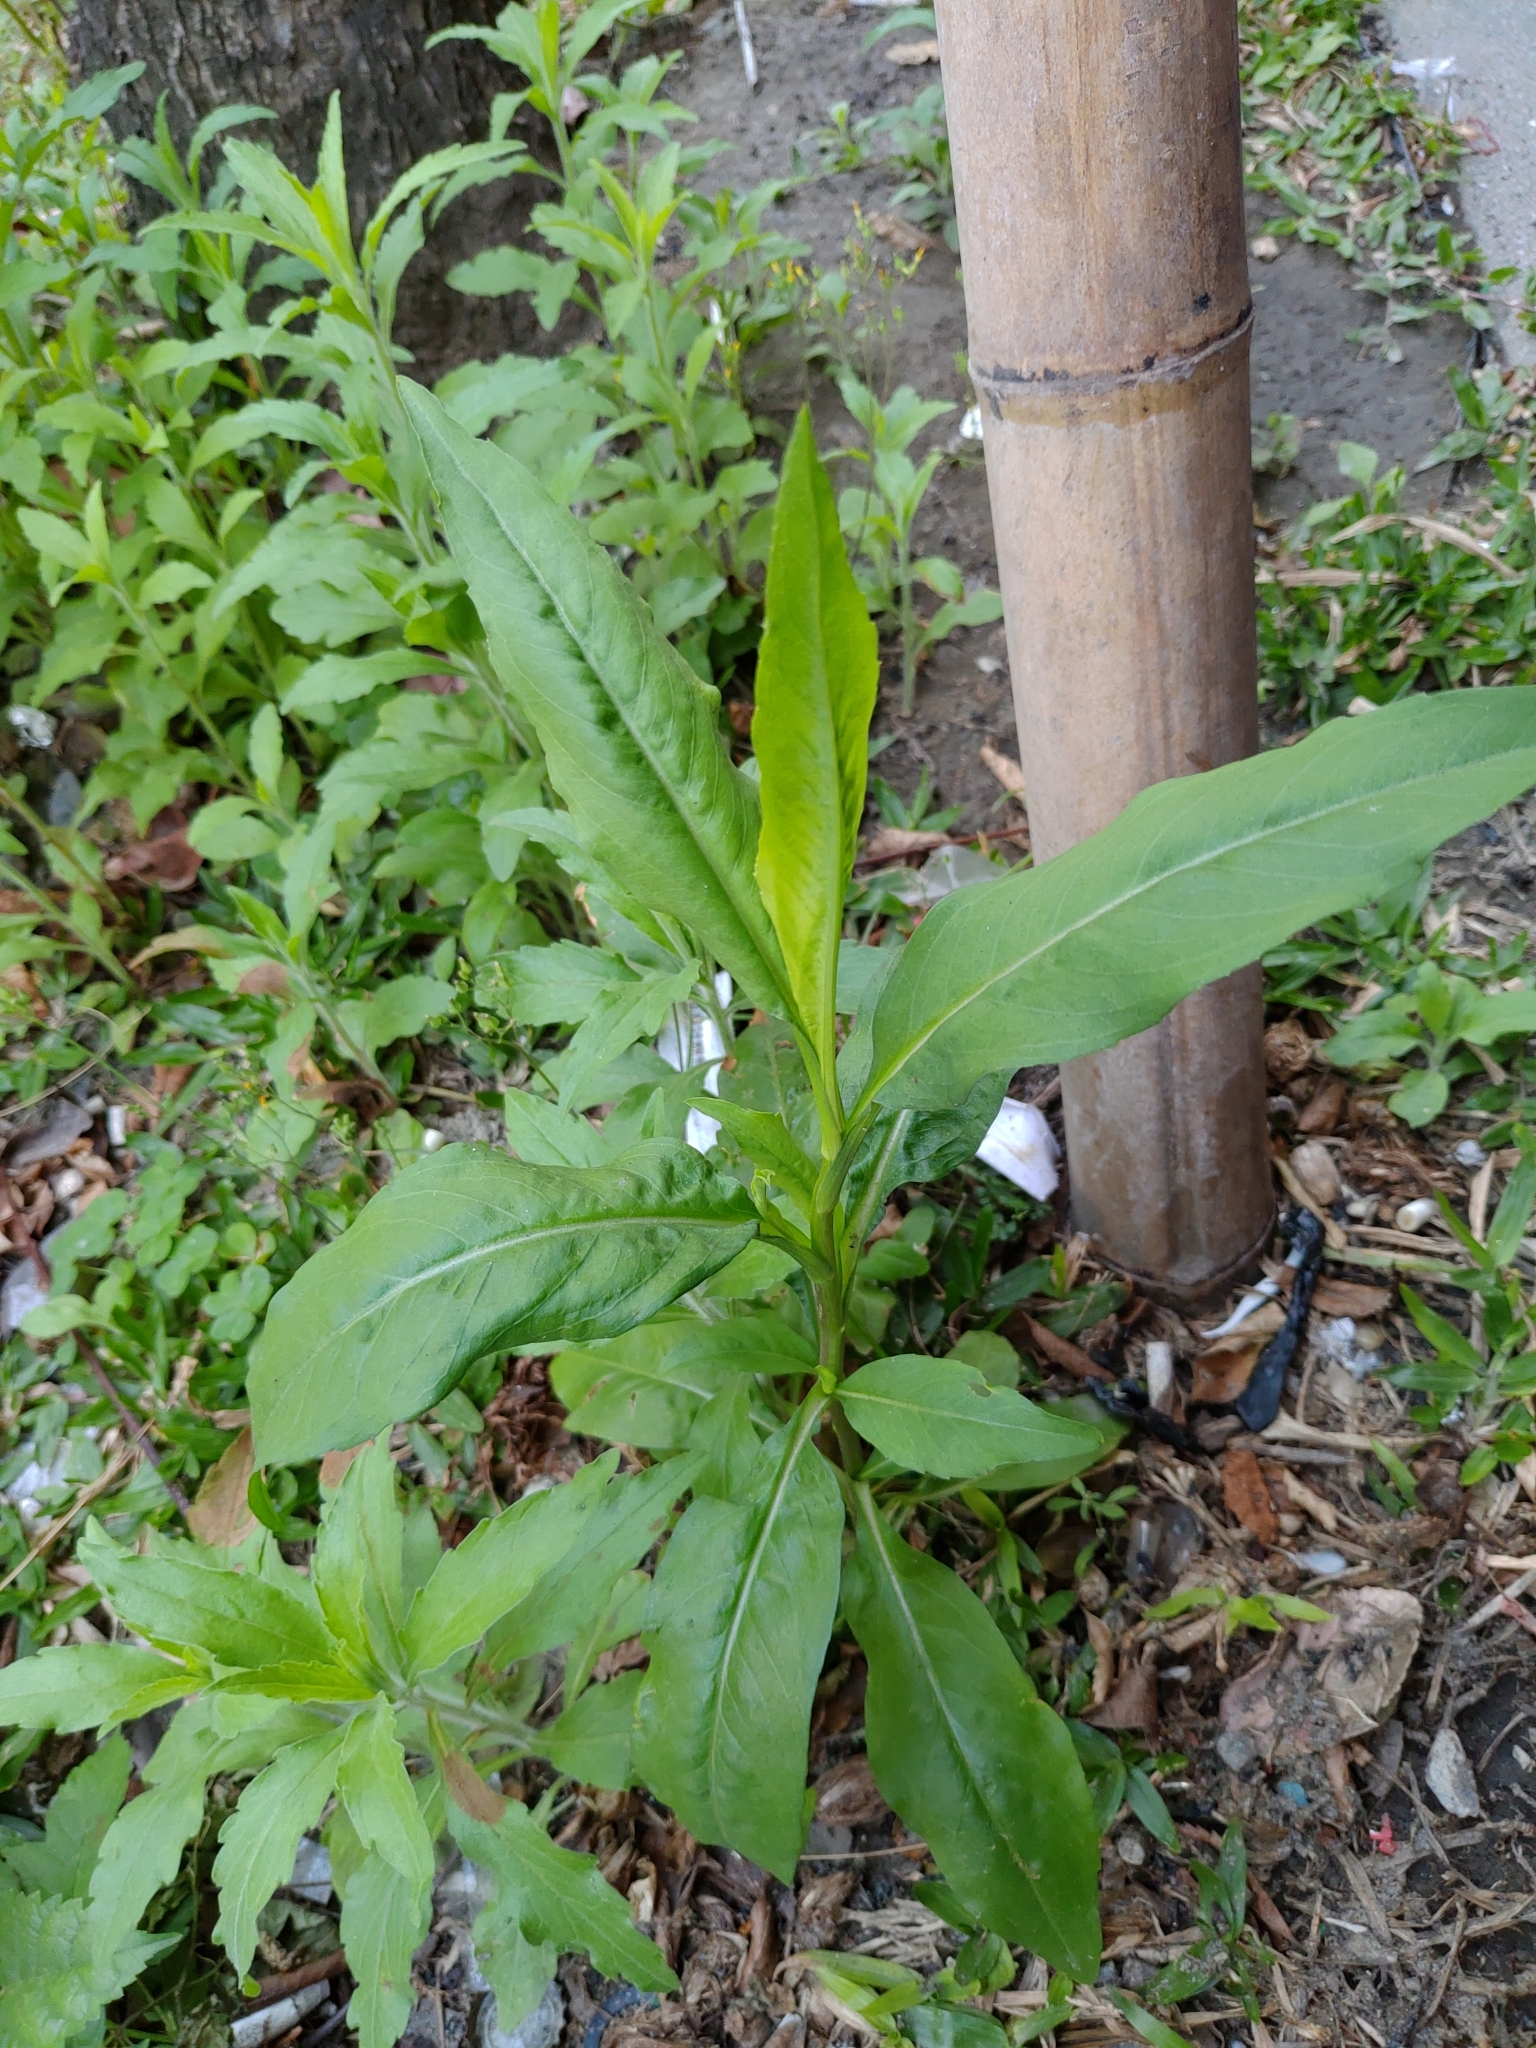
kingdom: Plantae
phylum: Tracheophyta
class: Magnoliopsida
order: Asterales
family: Asteraceae
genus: Symphyotrichum
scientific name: Symphyotrichum subulatum
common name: Annual saltmarsh aster
